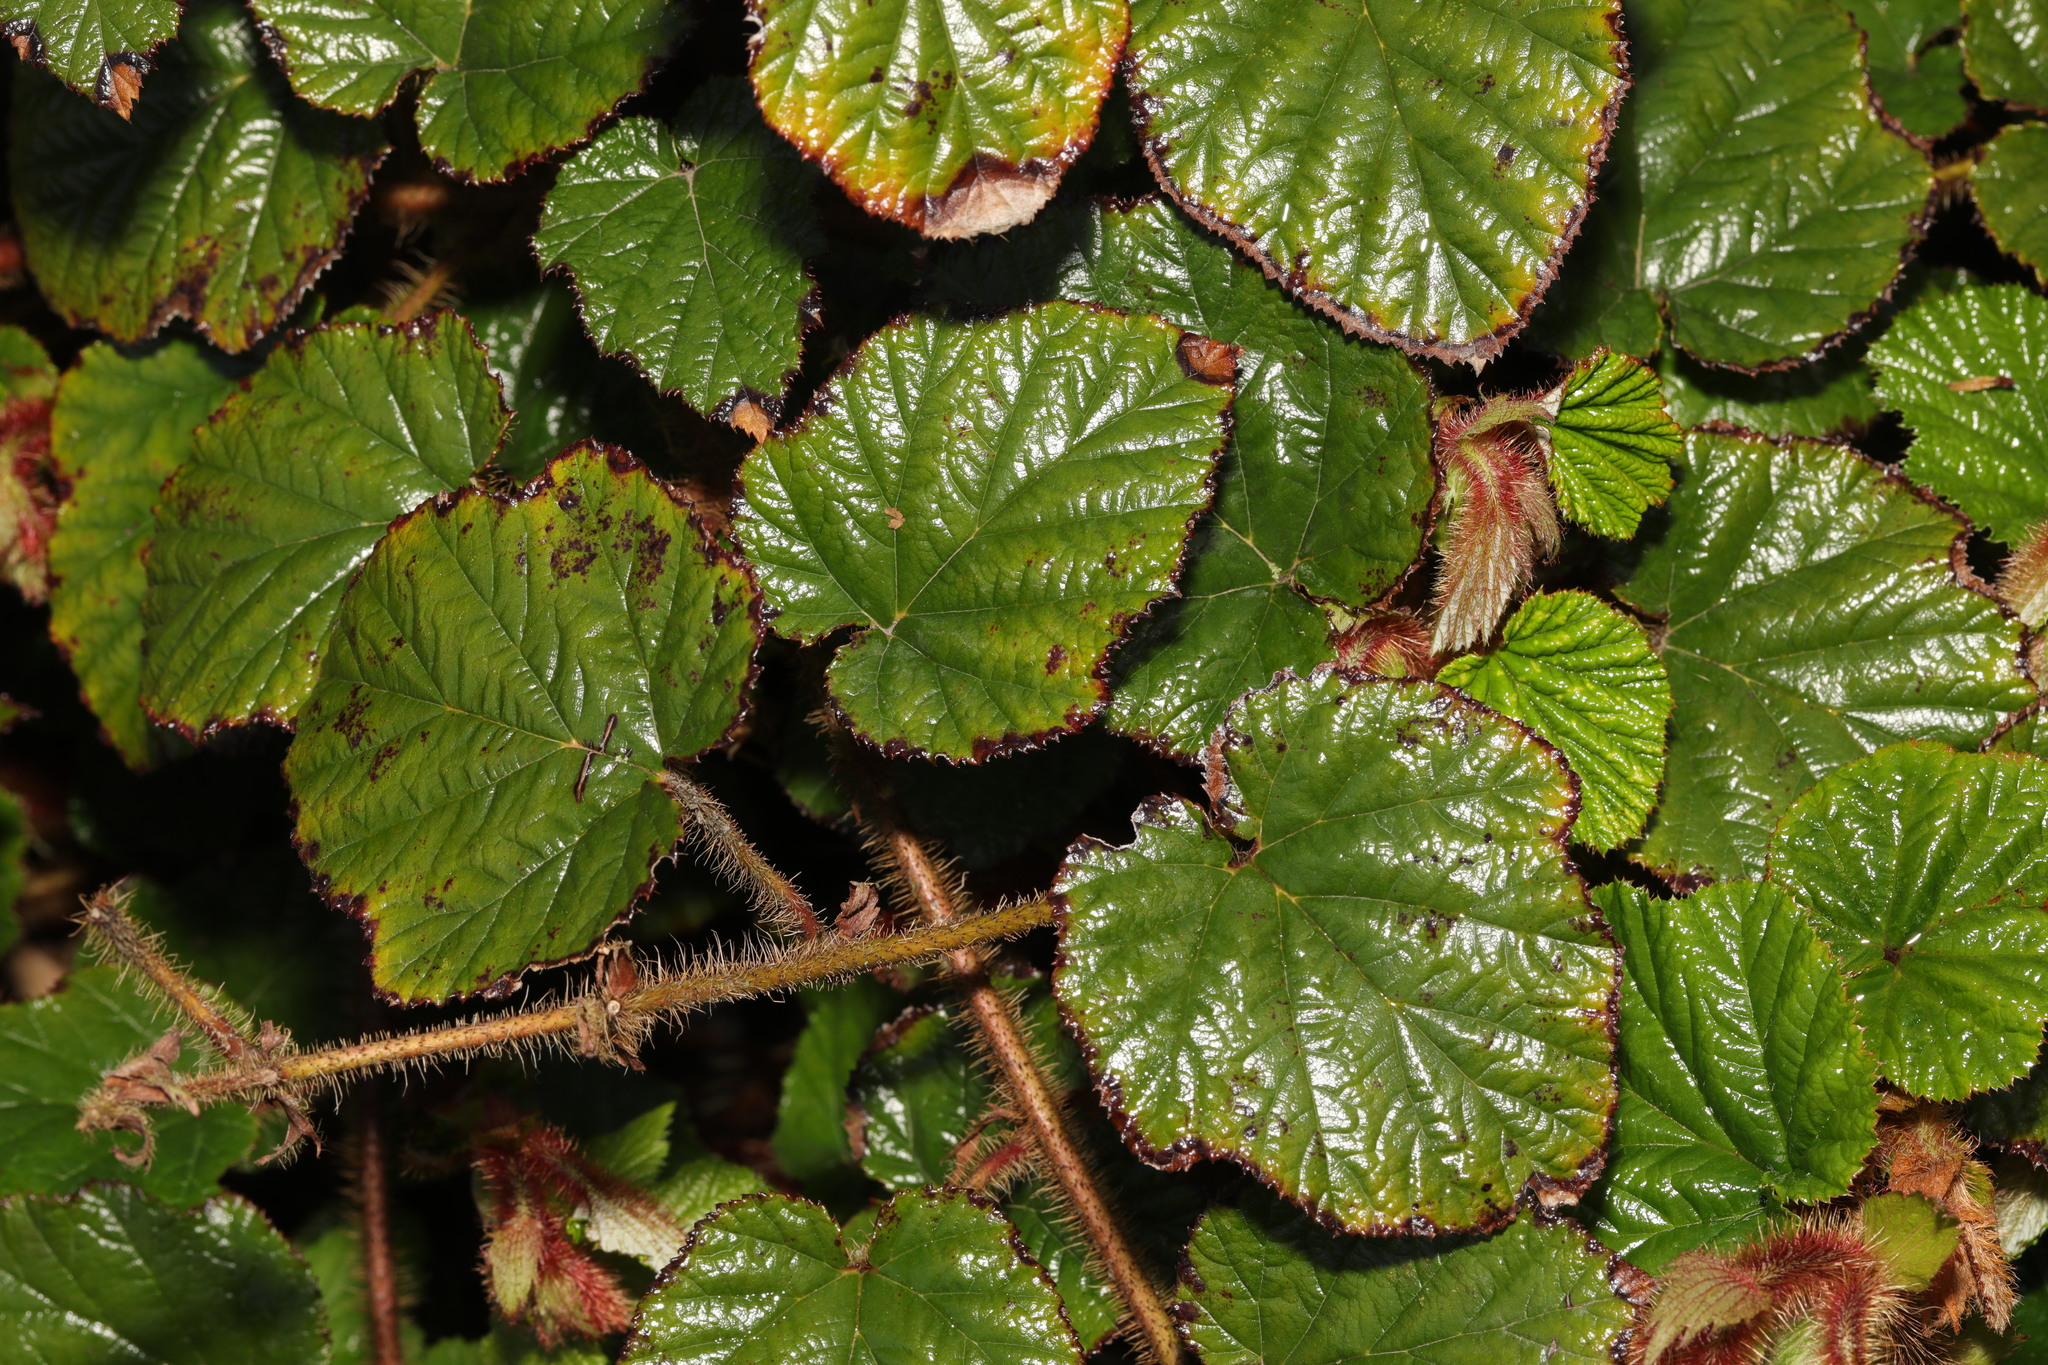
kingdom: Plantae
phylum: Tracheophyta
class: Magnoliopsida
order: Rosales
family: Rosaceae
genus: Rubus
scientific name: Rubus tricolor
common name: Chinese bramble
